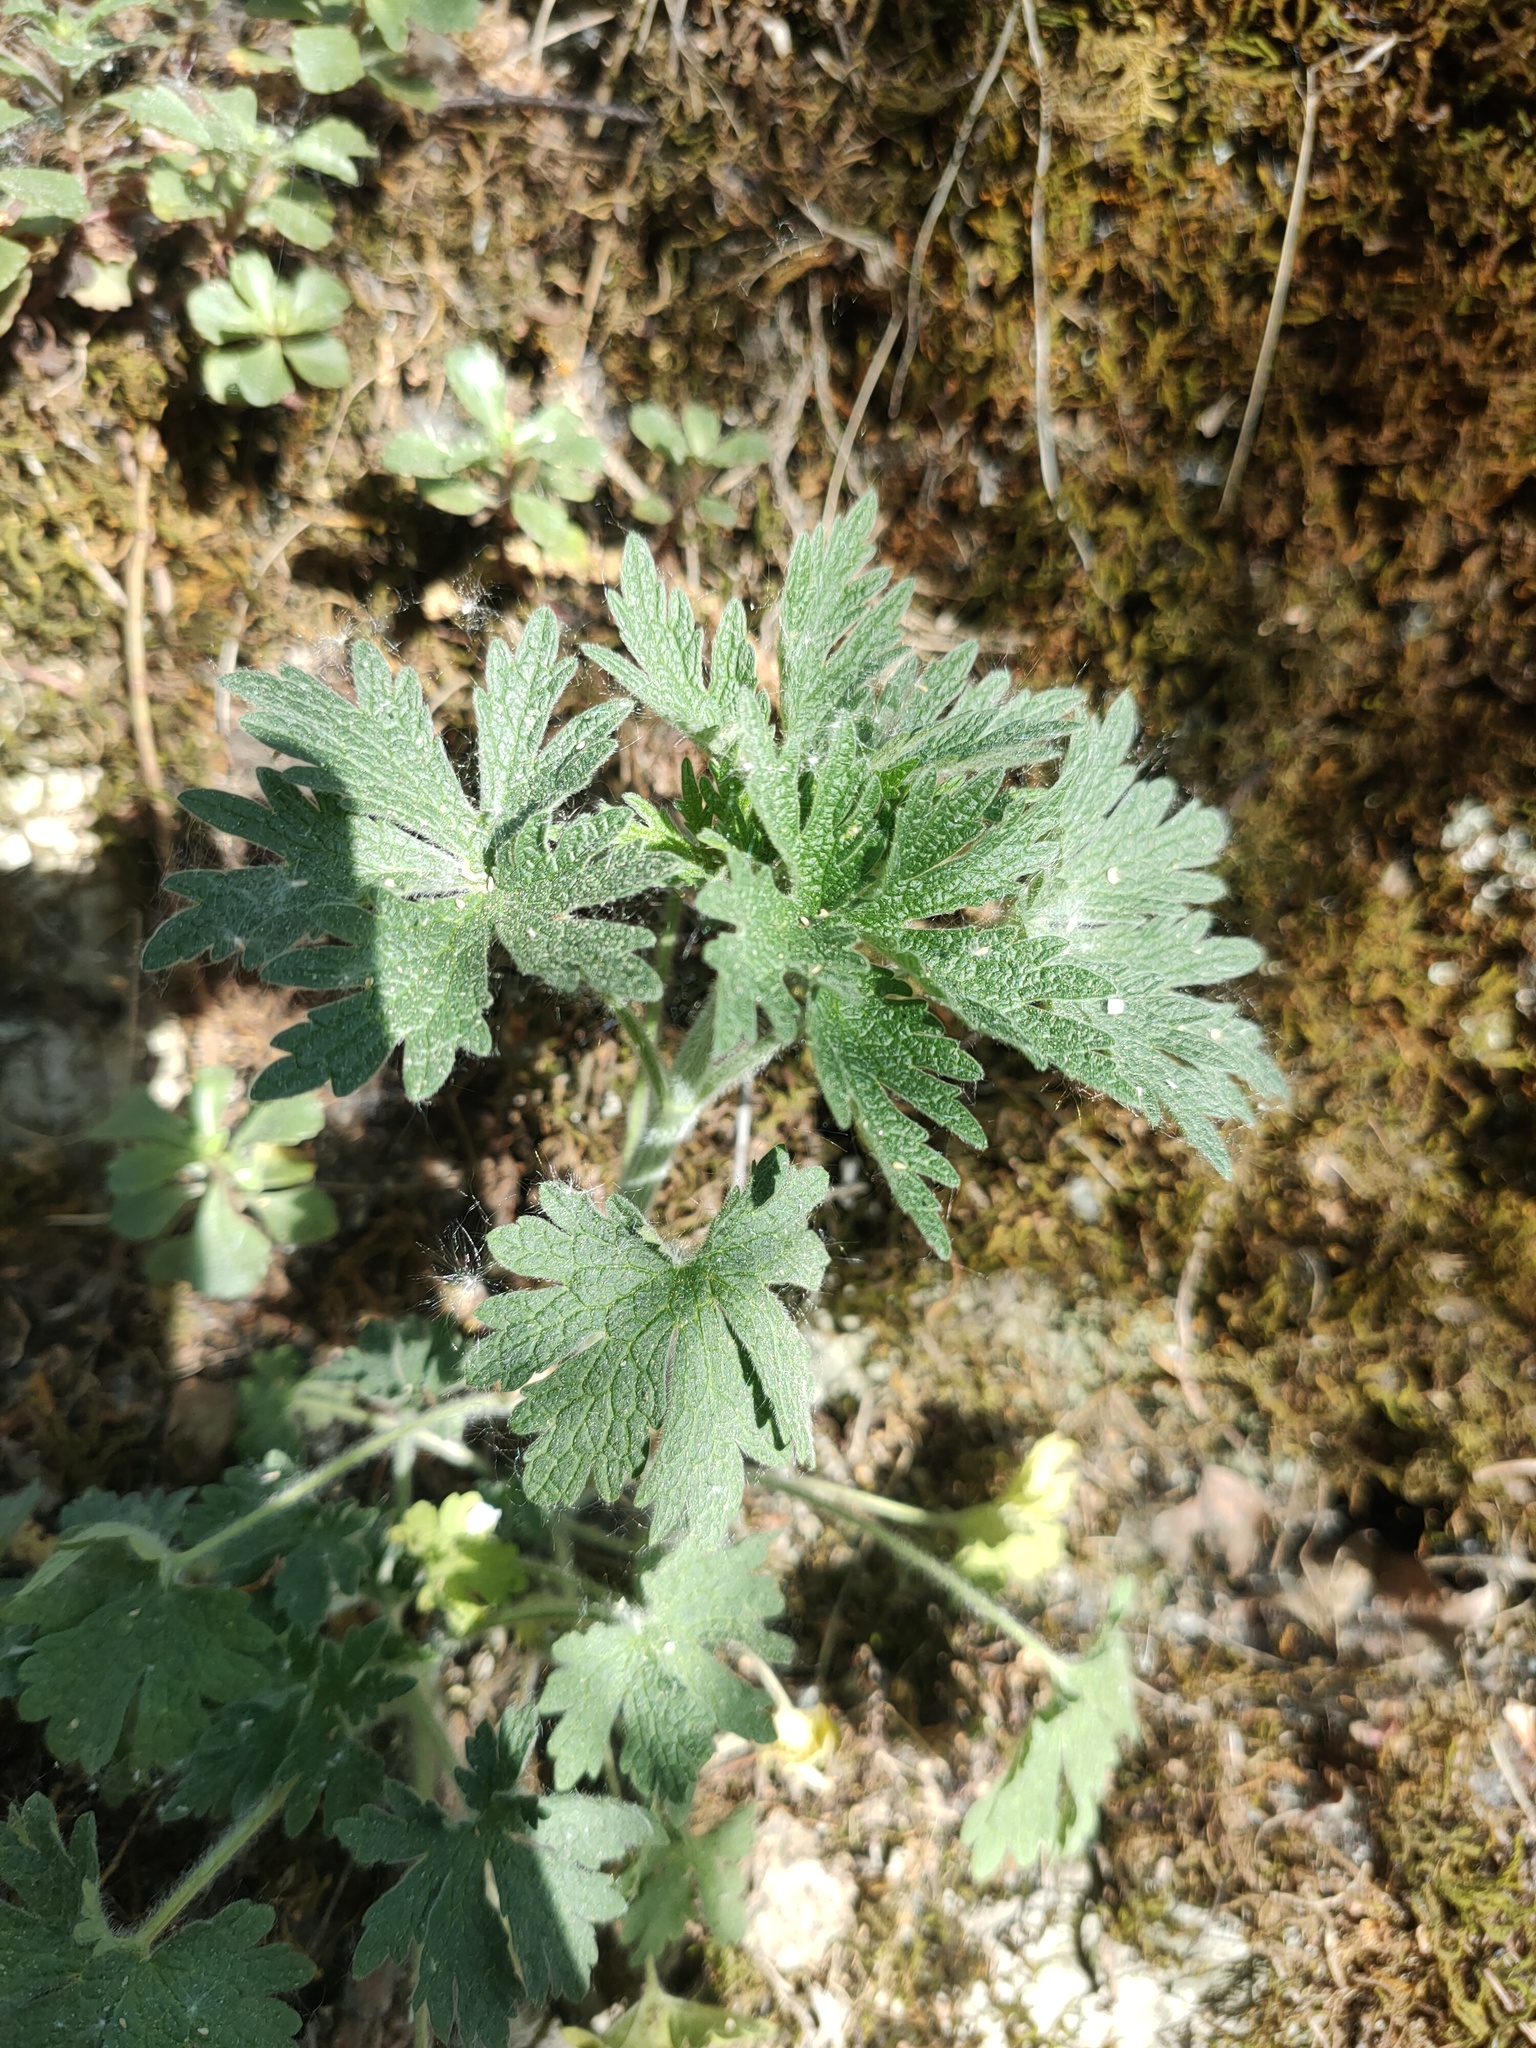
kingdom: Plantae
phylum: Tracheophyta
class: Magnoliopsida
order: Lamiales
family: Lamiaceae
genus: Leonurus
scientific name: Leonurus quinquelobatus
